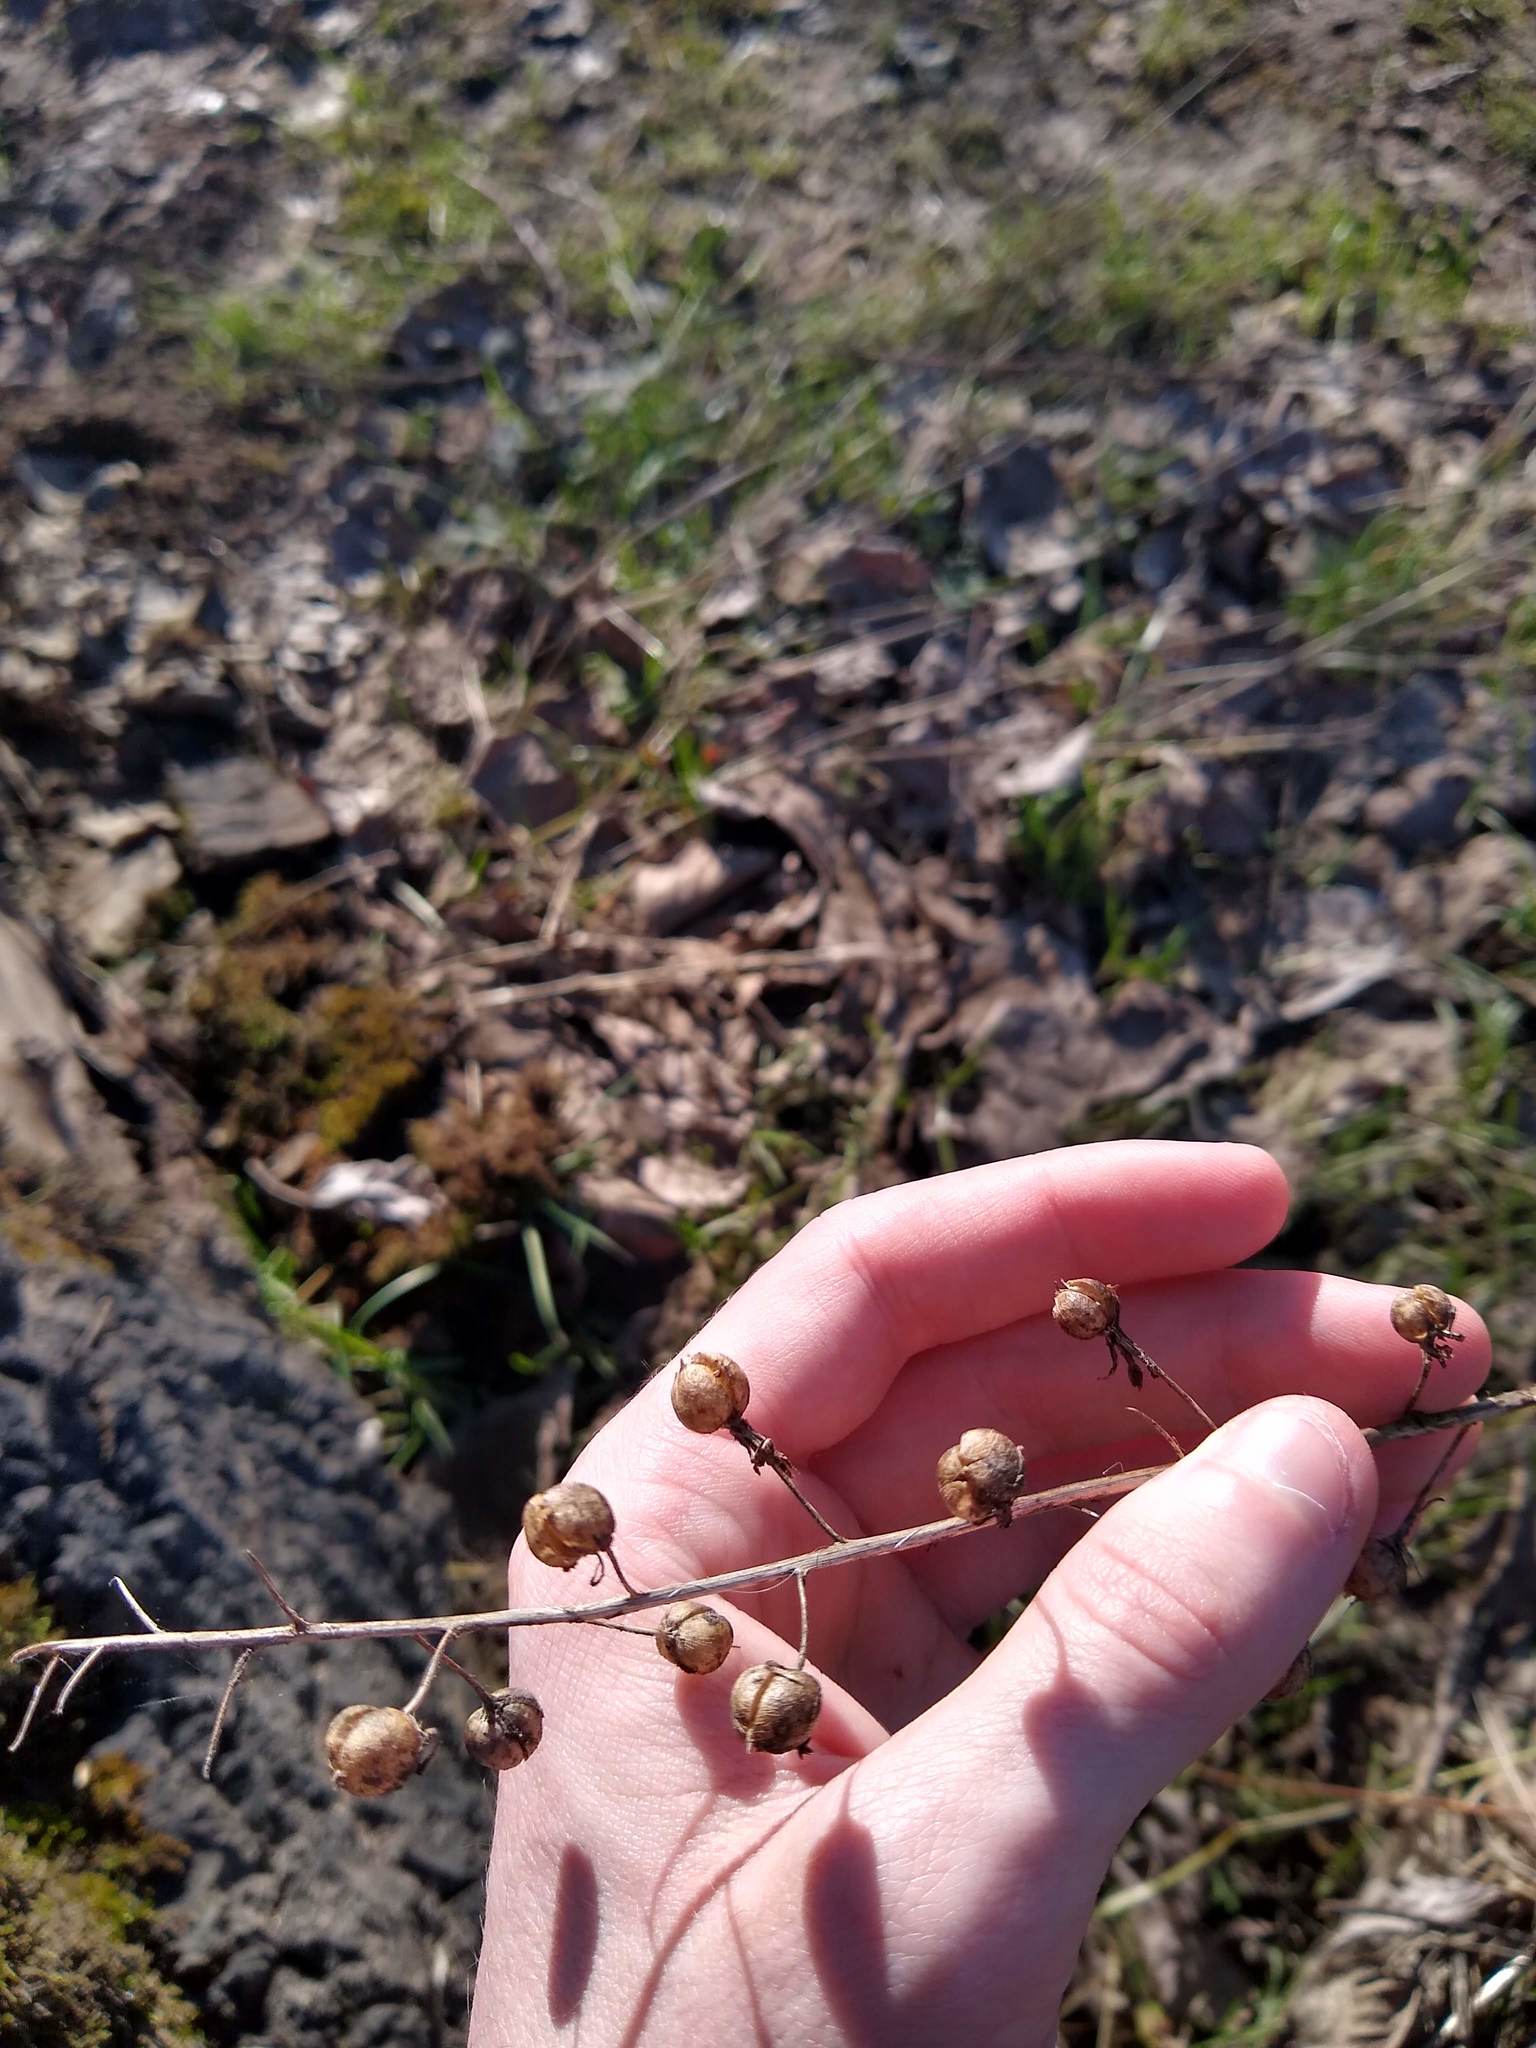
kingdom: Plantae
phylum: Tracheophyta
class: Magnoliopsida
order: Lamiales
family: Scrophulariaceae
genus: Verbascum
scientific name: Verbascum blattaria
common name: Moth mullein
